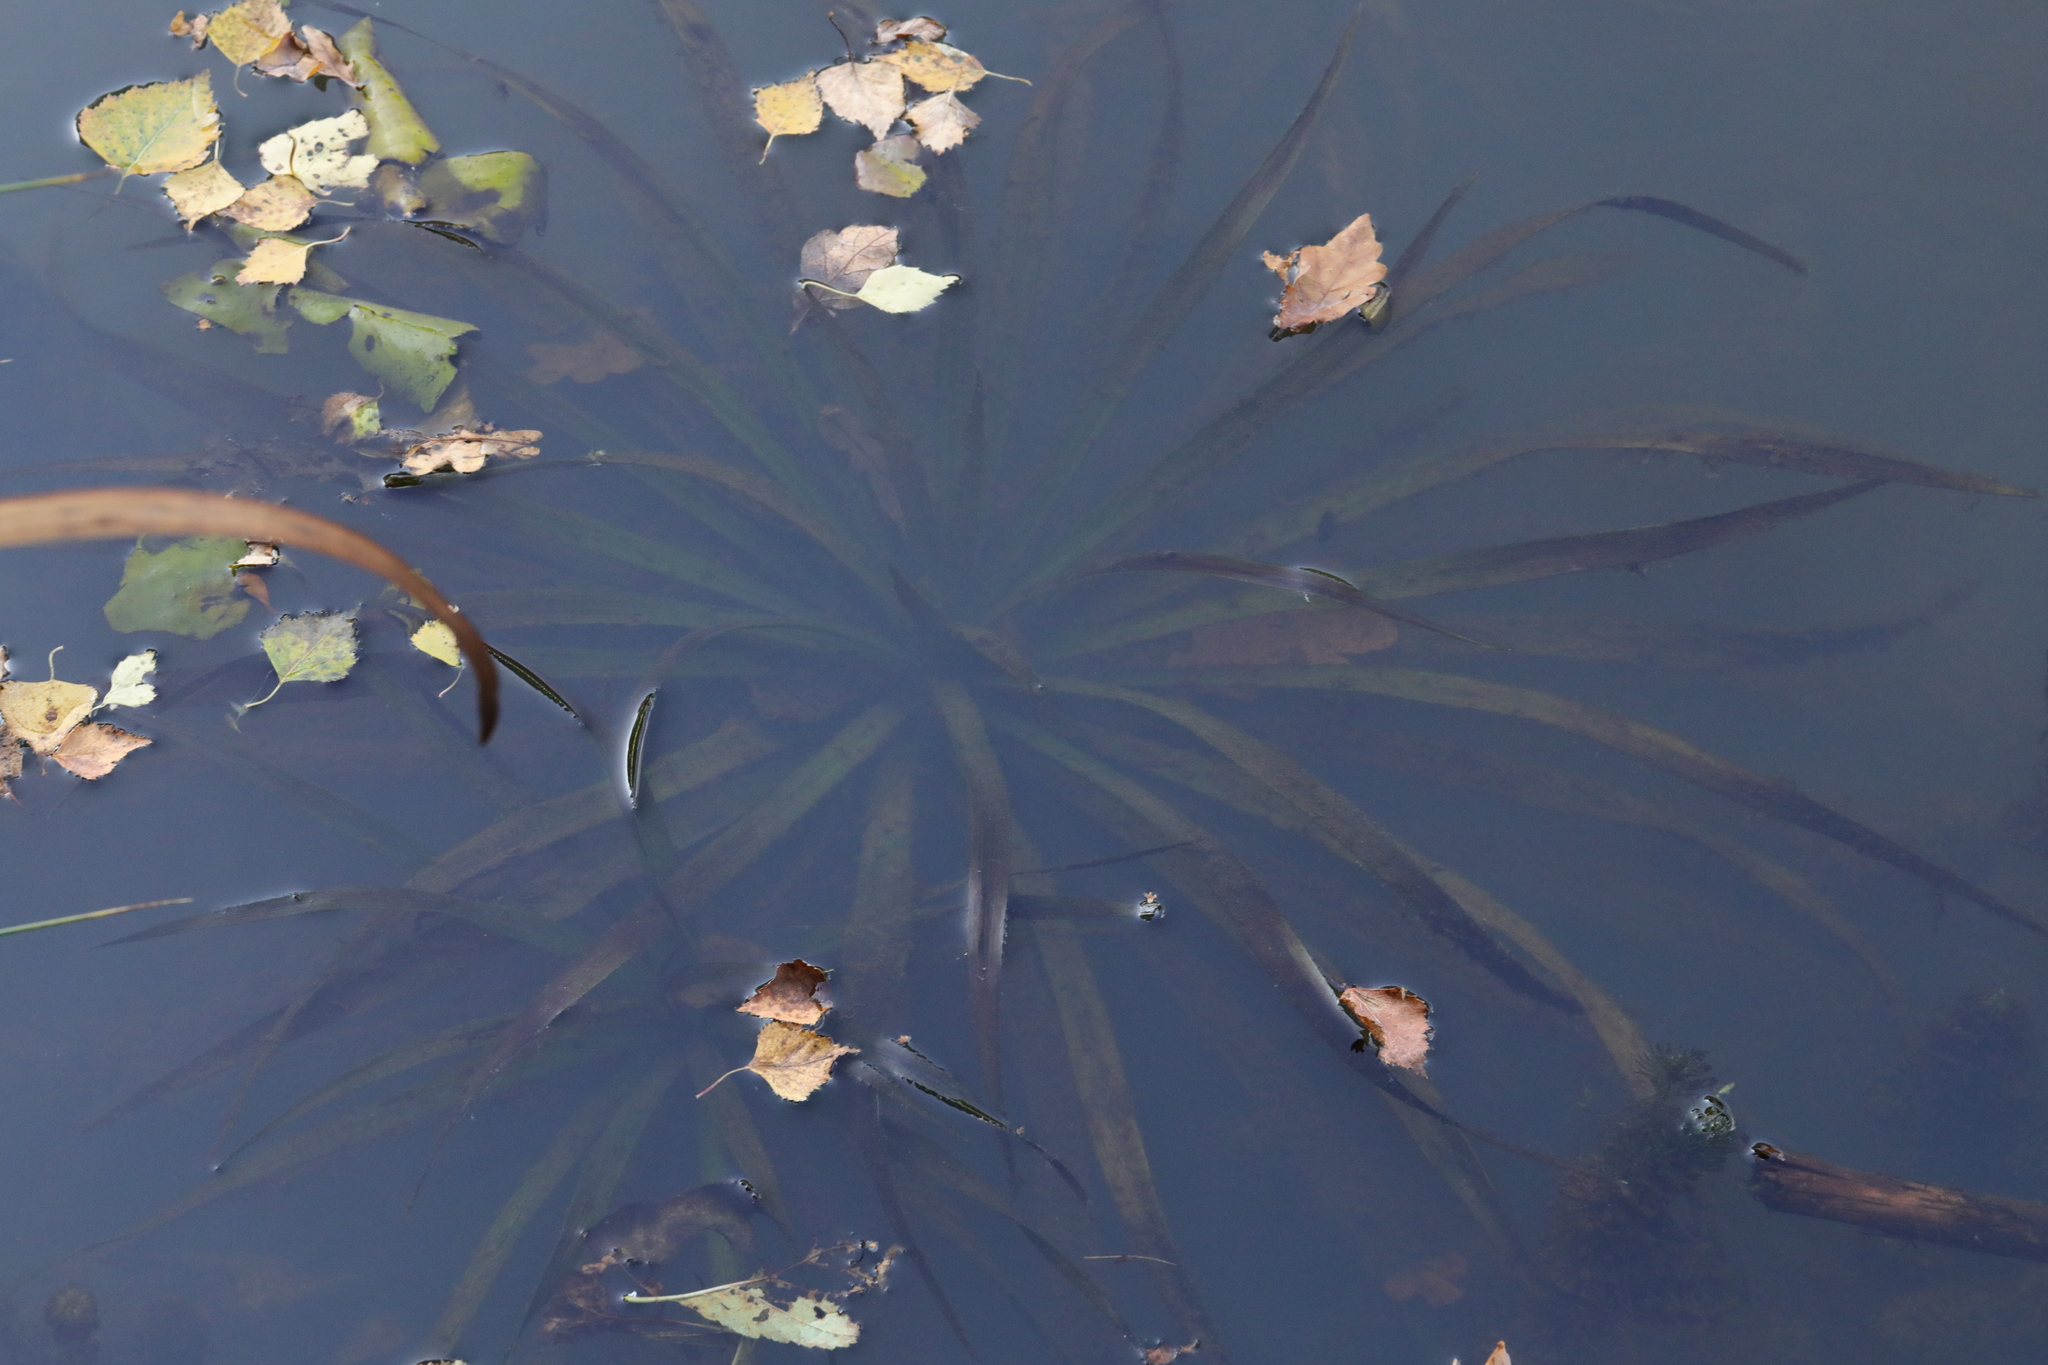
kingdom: Plantae
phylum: Tracheophyta
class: Liliopsida
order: Alismatales
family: Hydrocharitaceae
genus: Stratiotes
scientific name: Stratiotes aloides
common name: Water-soldier
